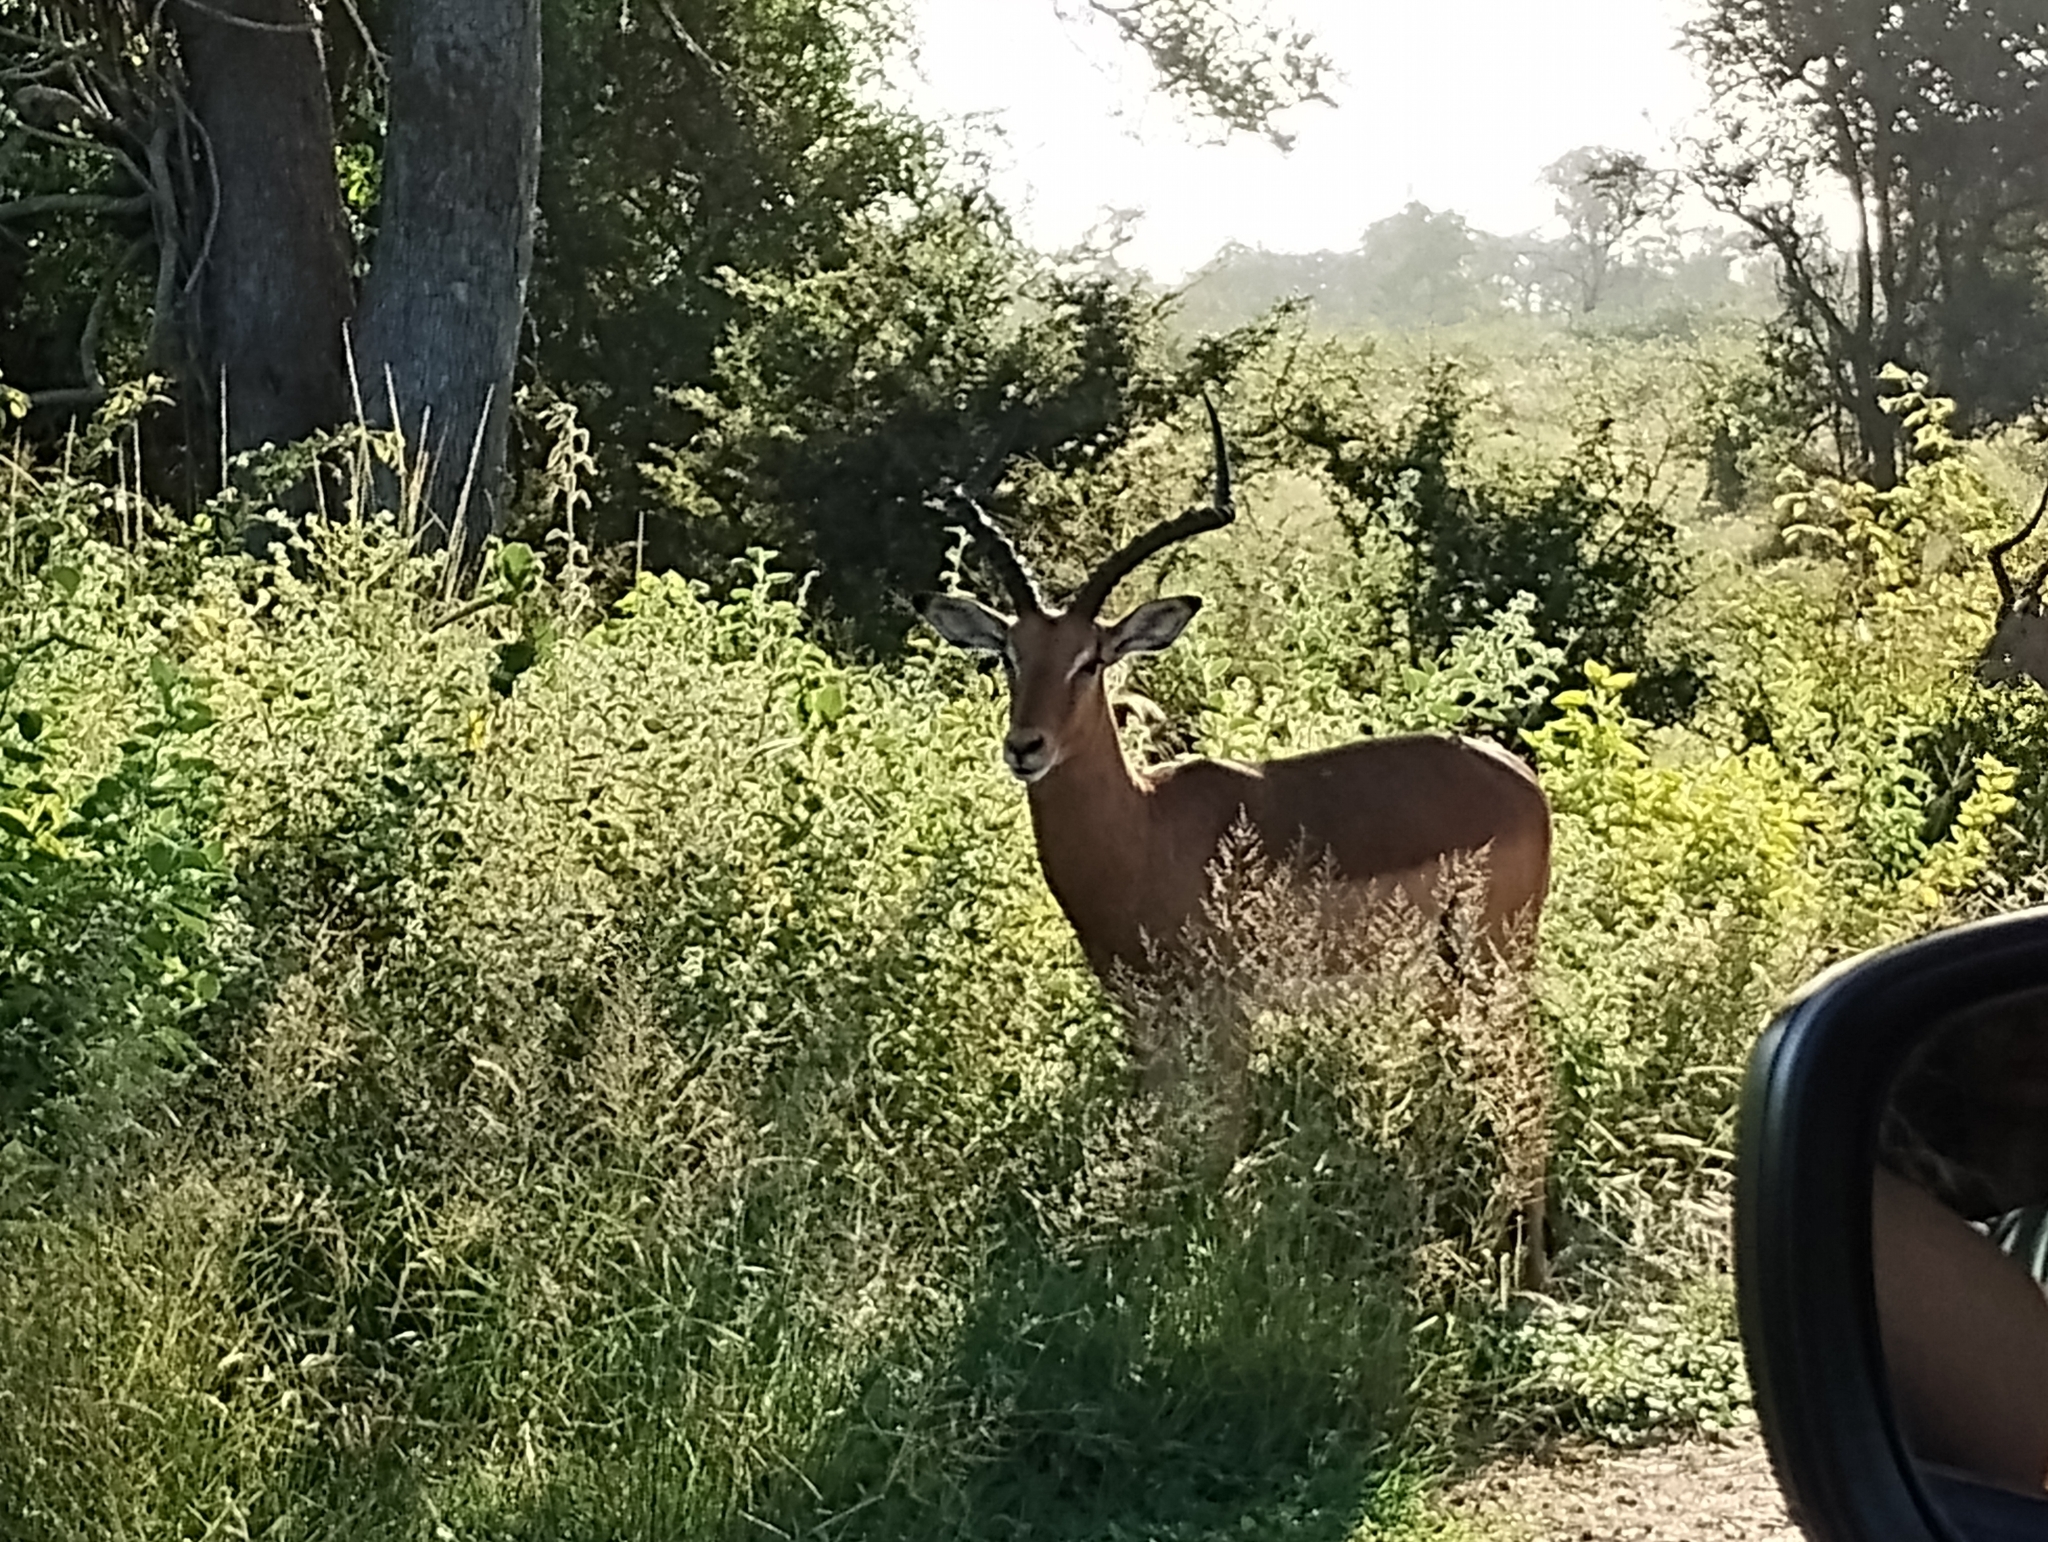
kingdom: Animalia
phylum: Chordata
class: Mammalia
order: Artiodactyla
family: Bovidae
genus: Aepyceros
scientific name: Aepyceros melampus
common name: Impala
